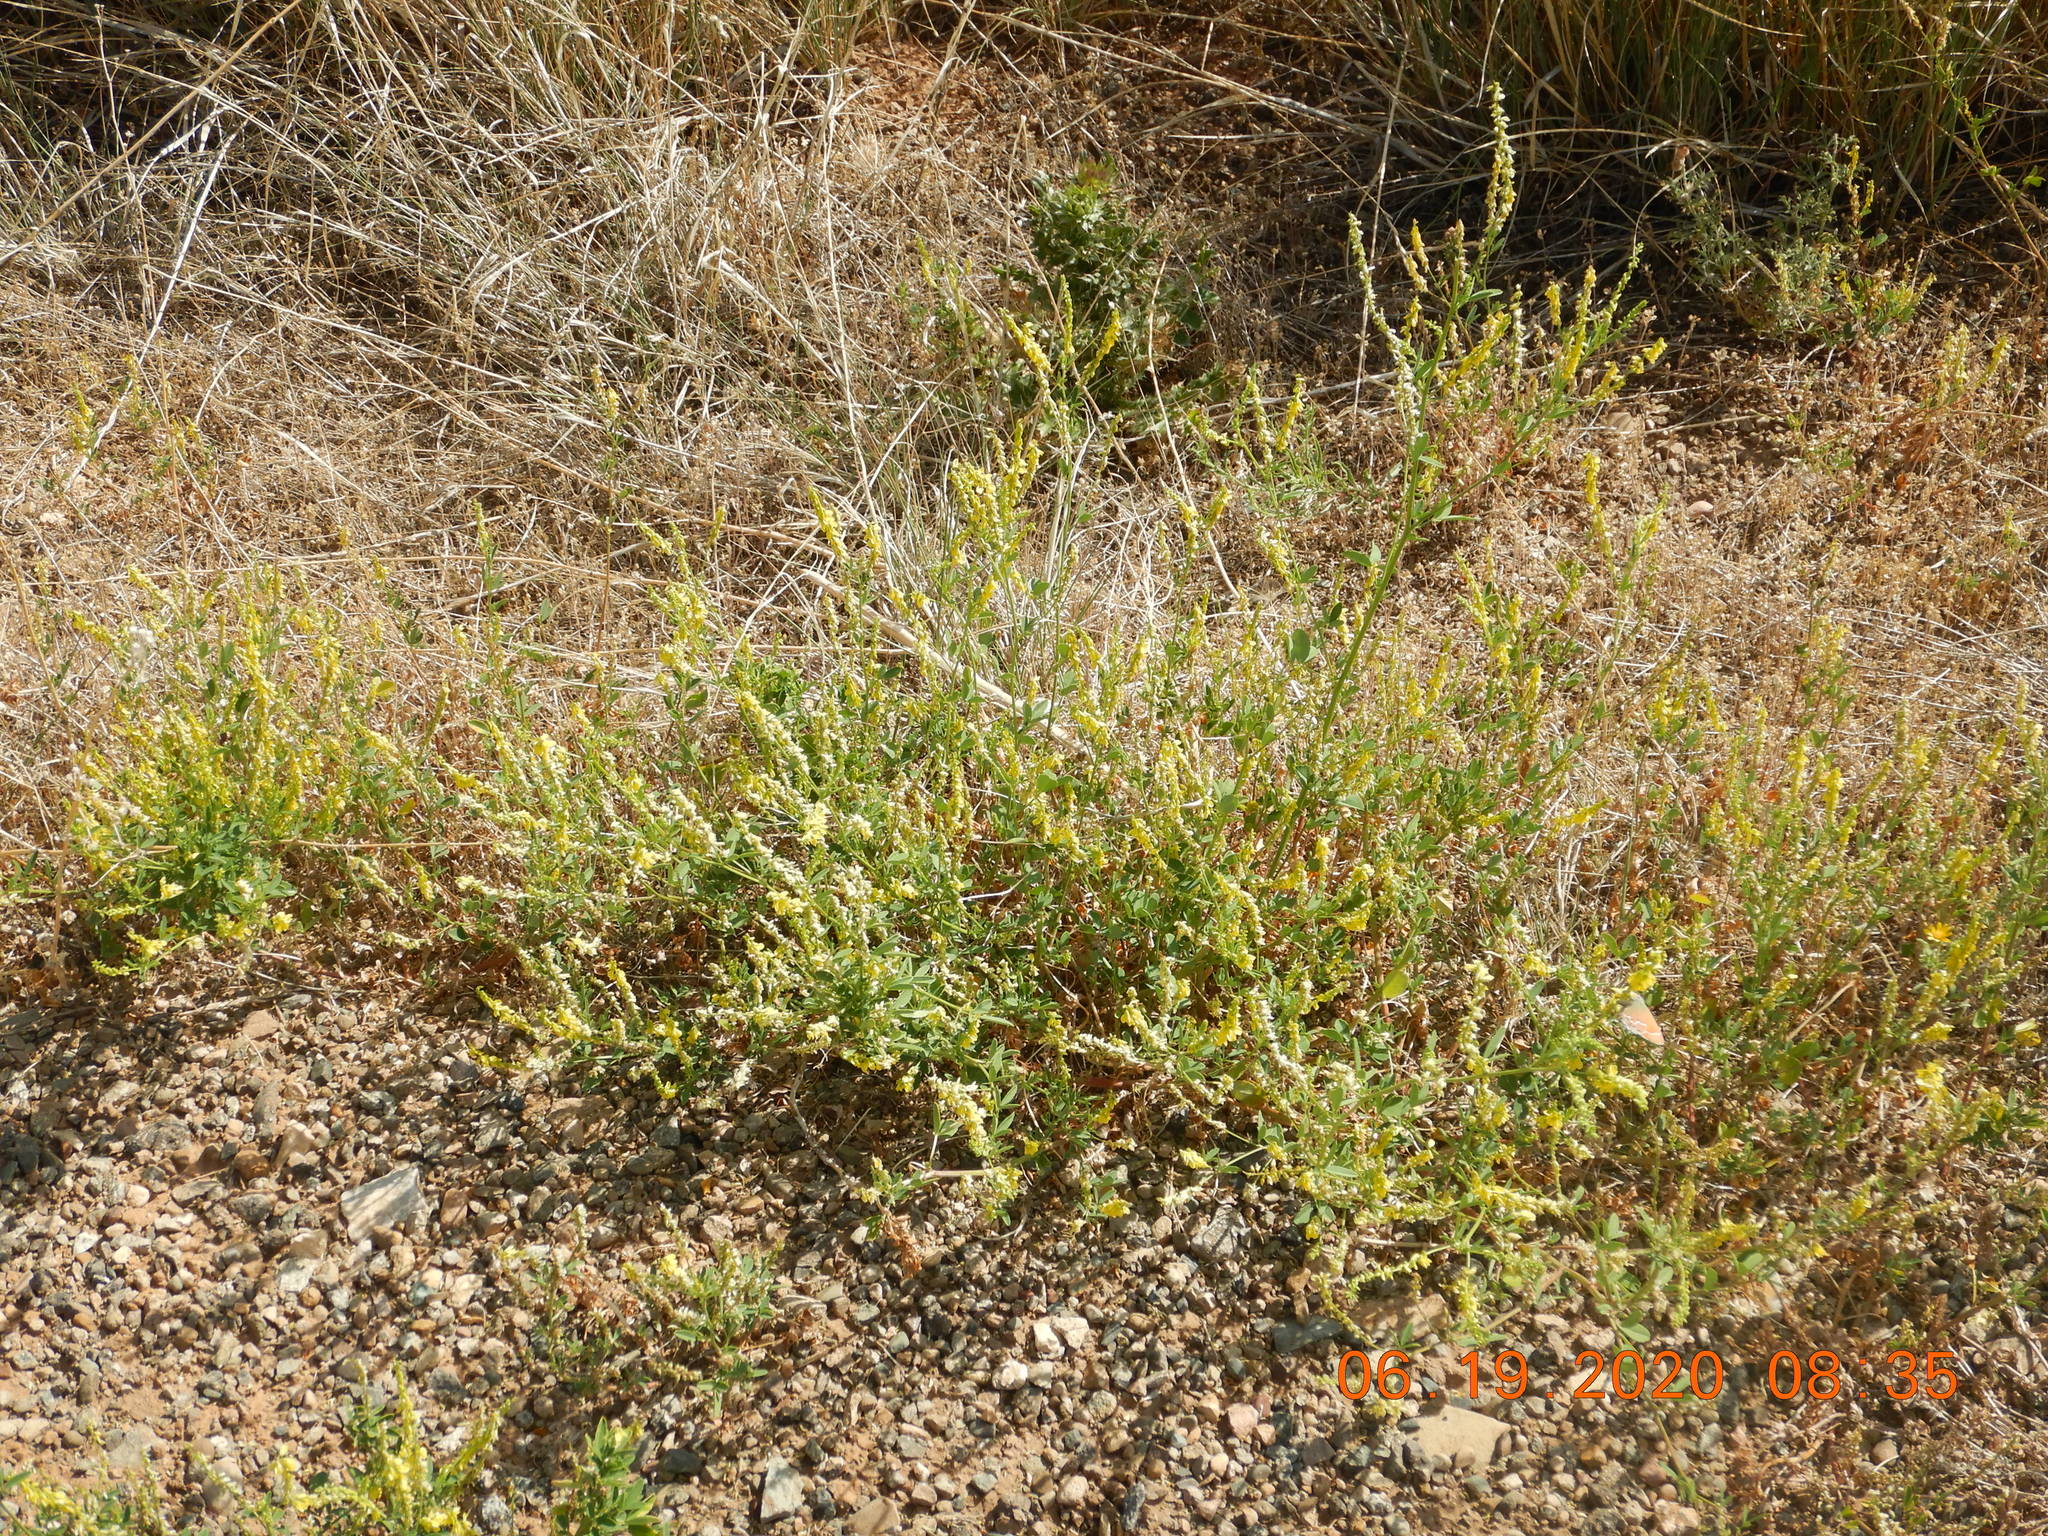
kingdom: Plantae
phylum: Tracheophyta
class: Magnoliopsida
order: Fabales
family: Fabaceae
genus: Melilotus
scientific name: Melilotus officinalis
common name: Sweetclover
